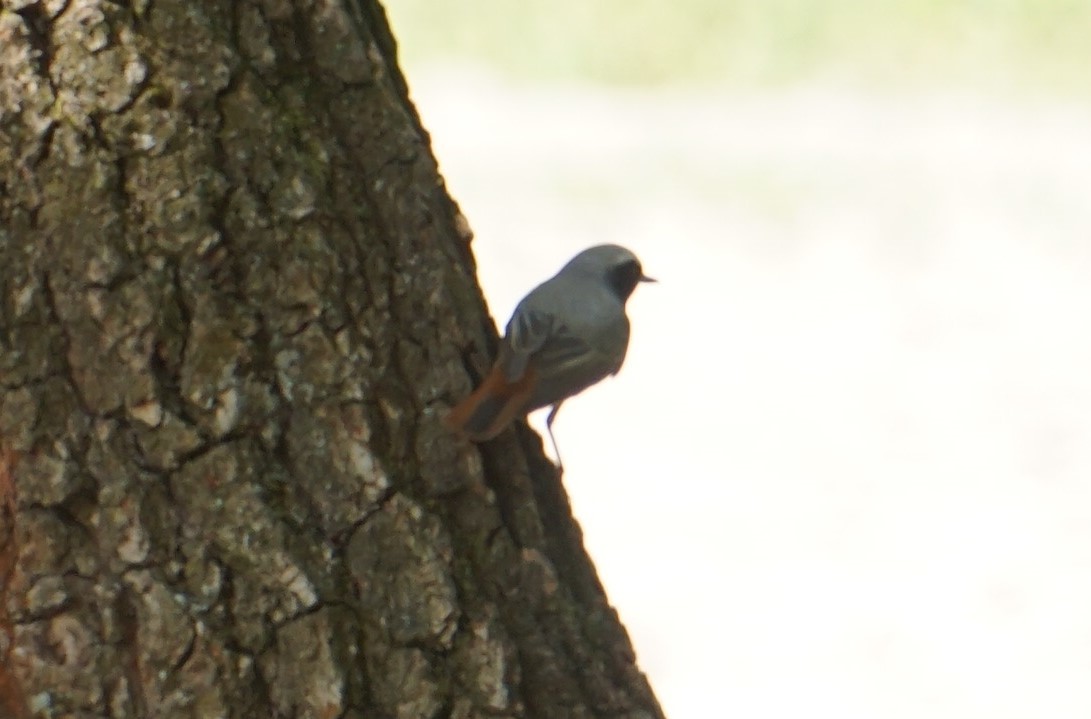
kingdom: Animalia
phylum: Chordata
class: Aves
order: Passeriformes
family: Muscicapidae
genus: Phoenicurus
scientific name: Phoenicurus phoenicurus
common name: Common redstart
